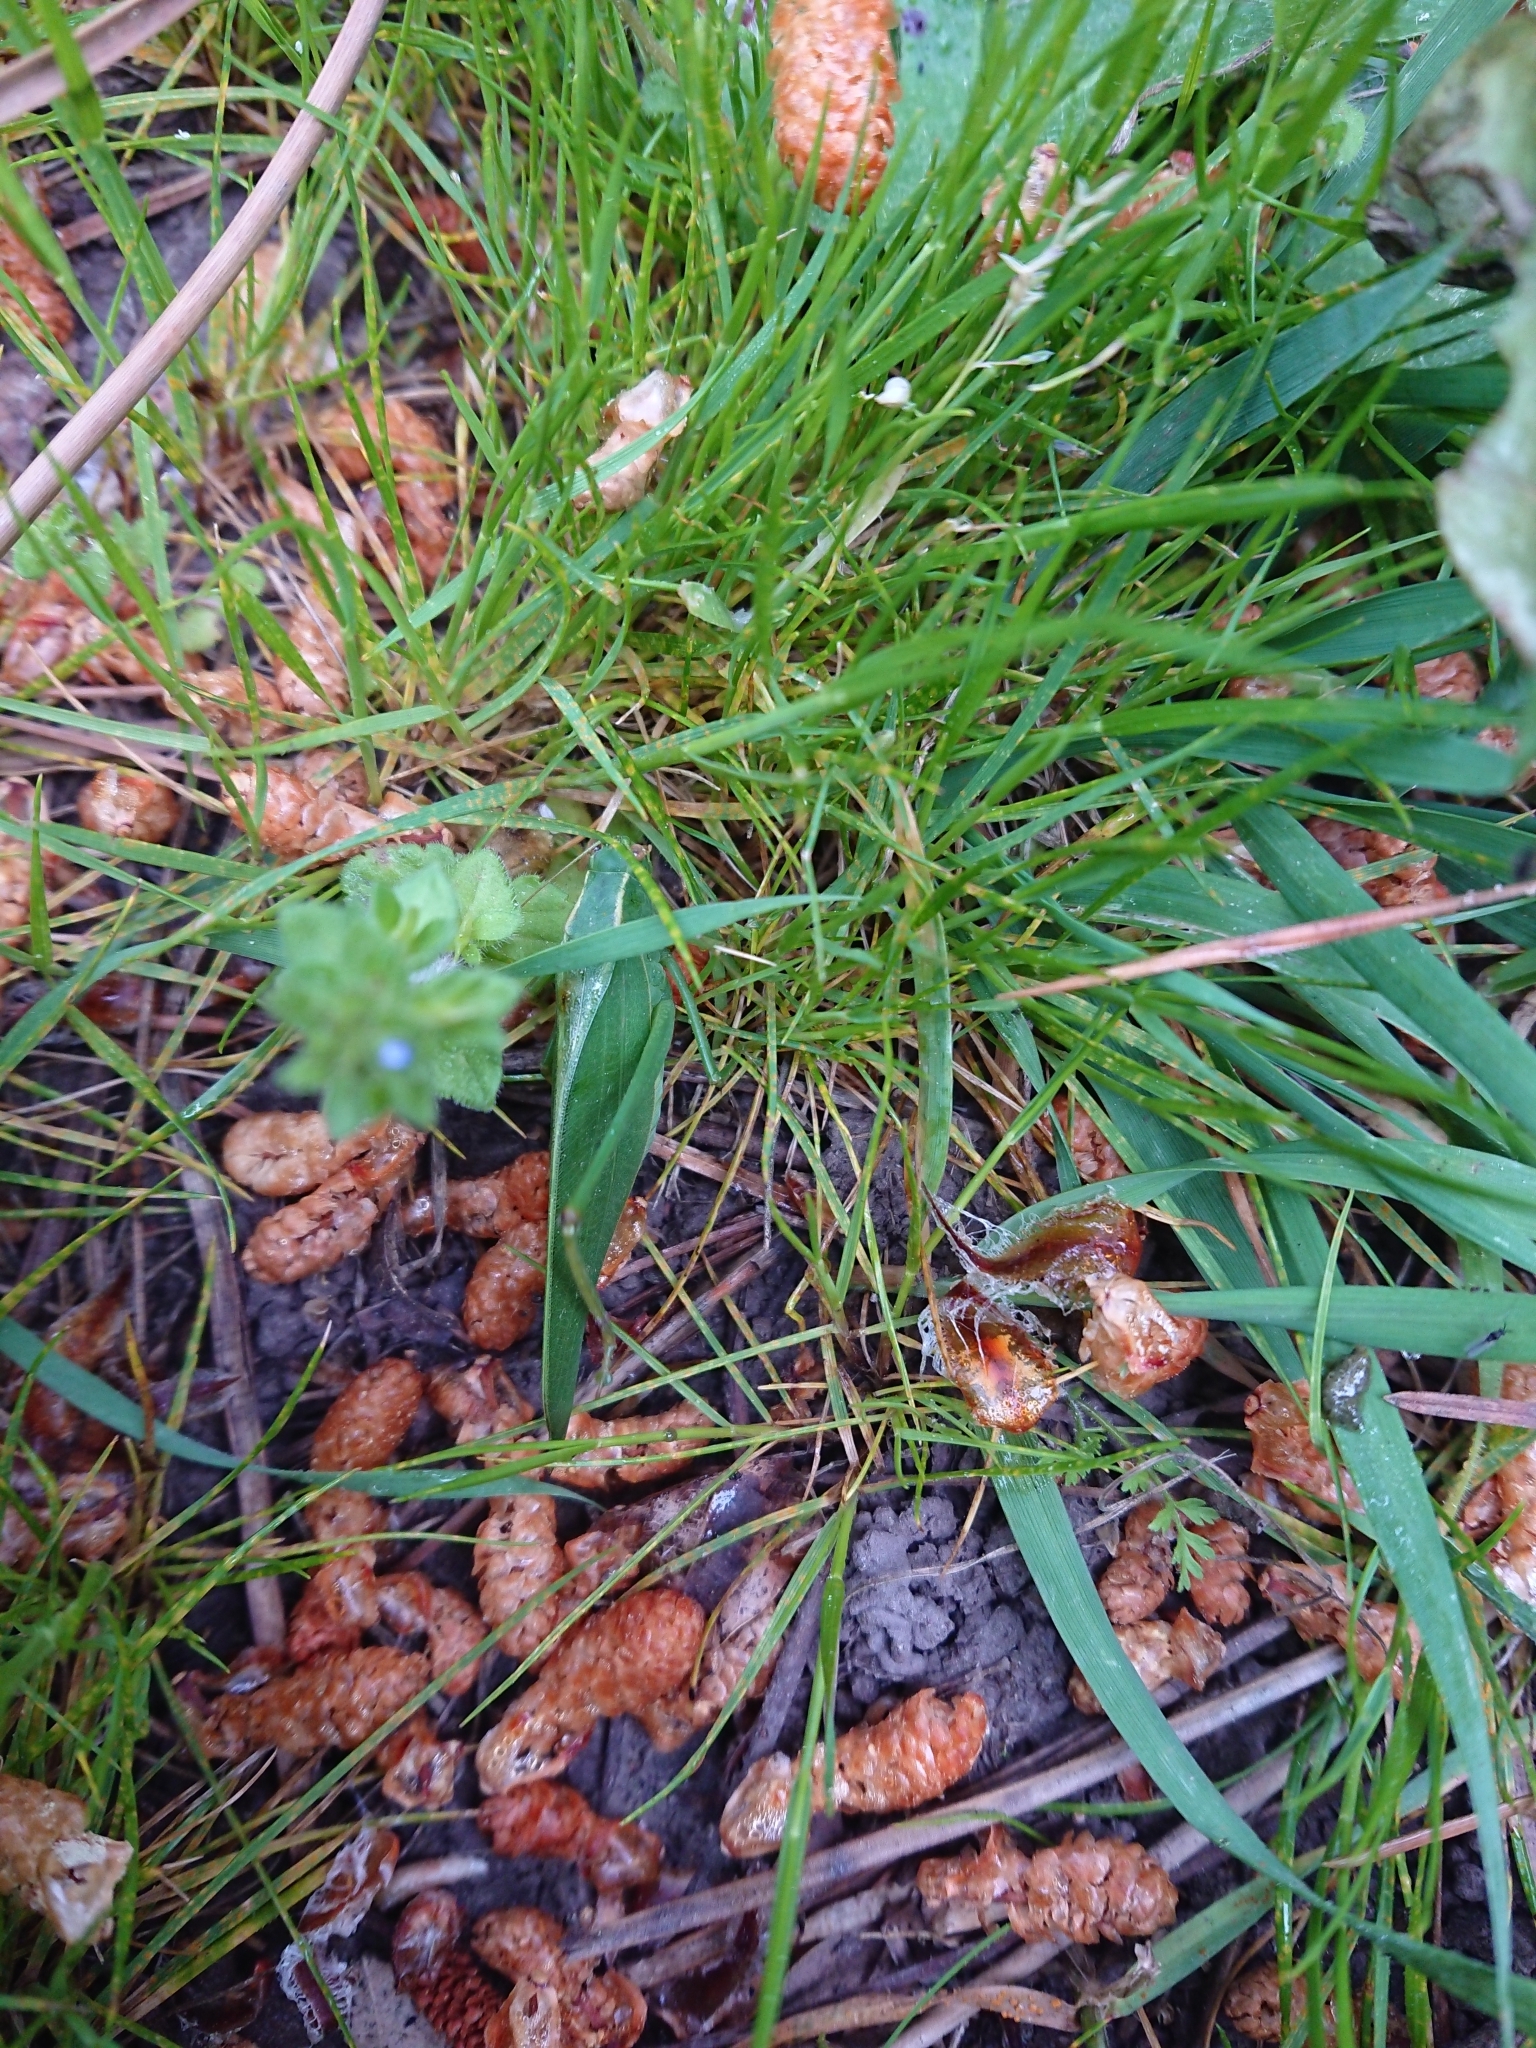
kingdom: Animalia
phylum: Arthropoda
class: Insecta
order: Orthoptera
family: Tettigoniidae
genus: Caedicia
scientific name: Caedicia simplex
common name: Common garden katydid
